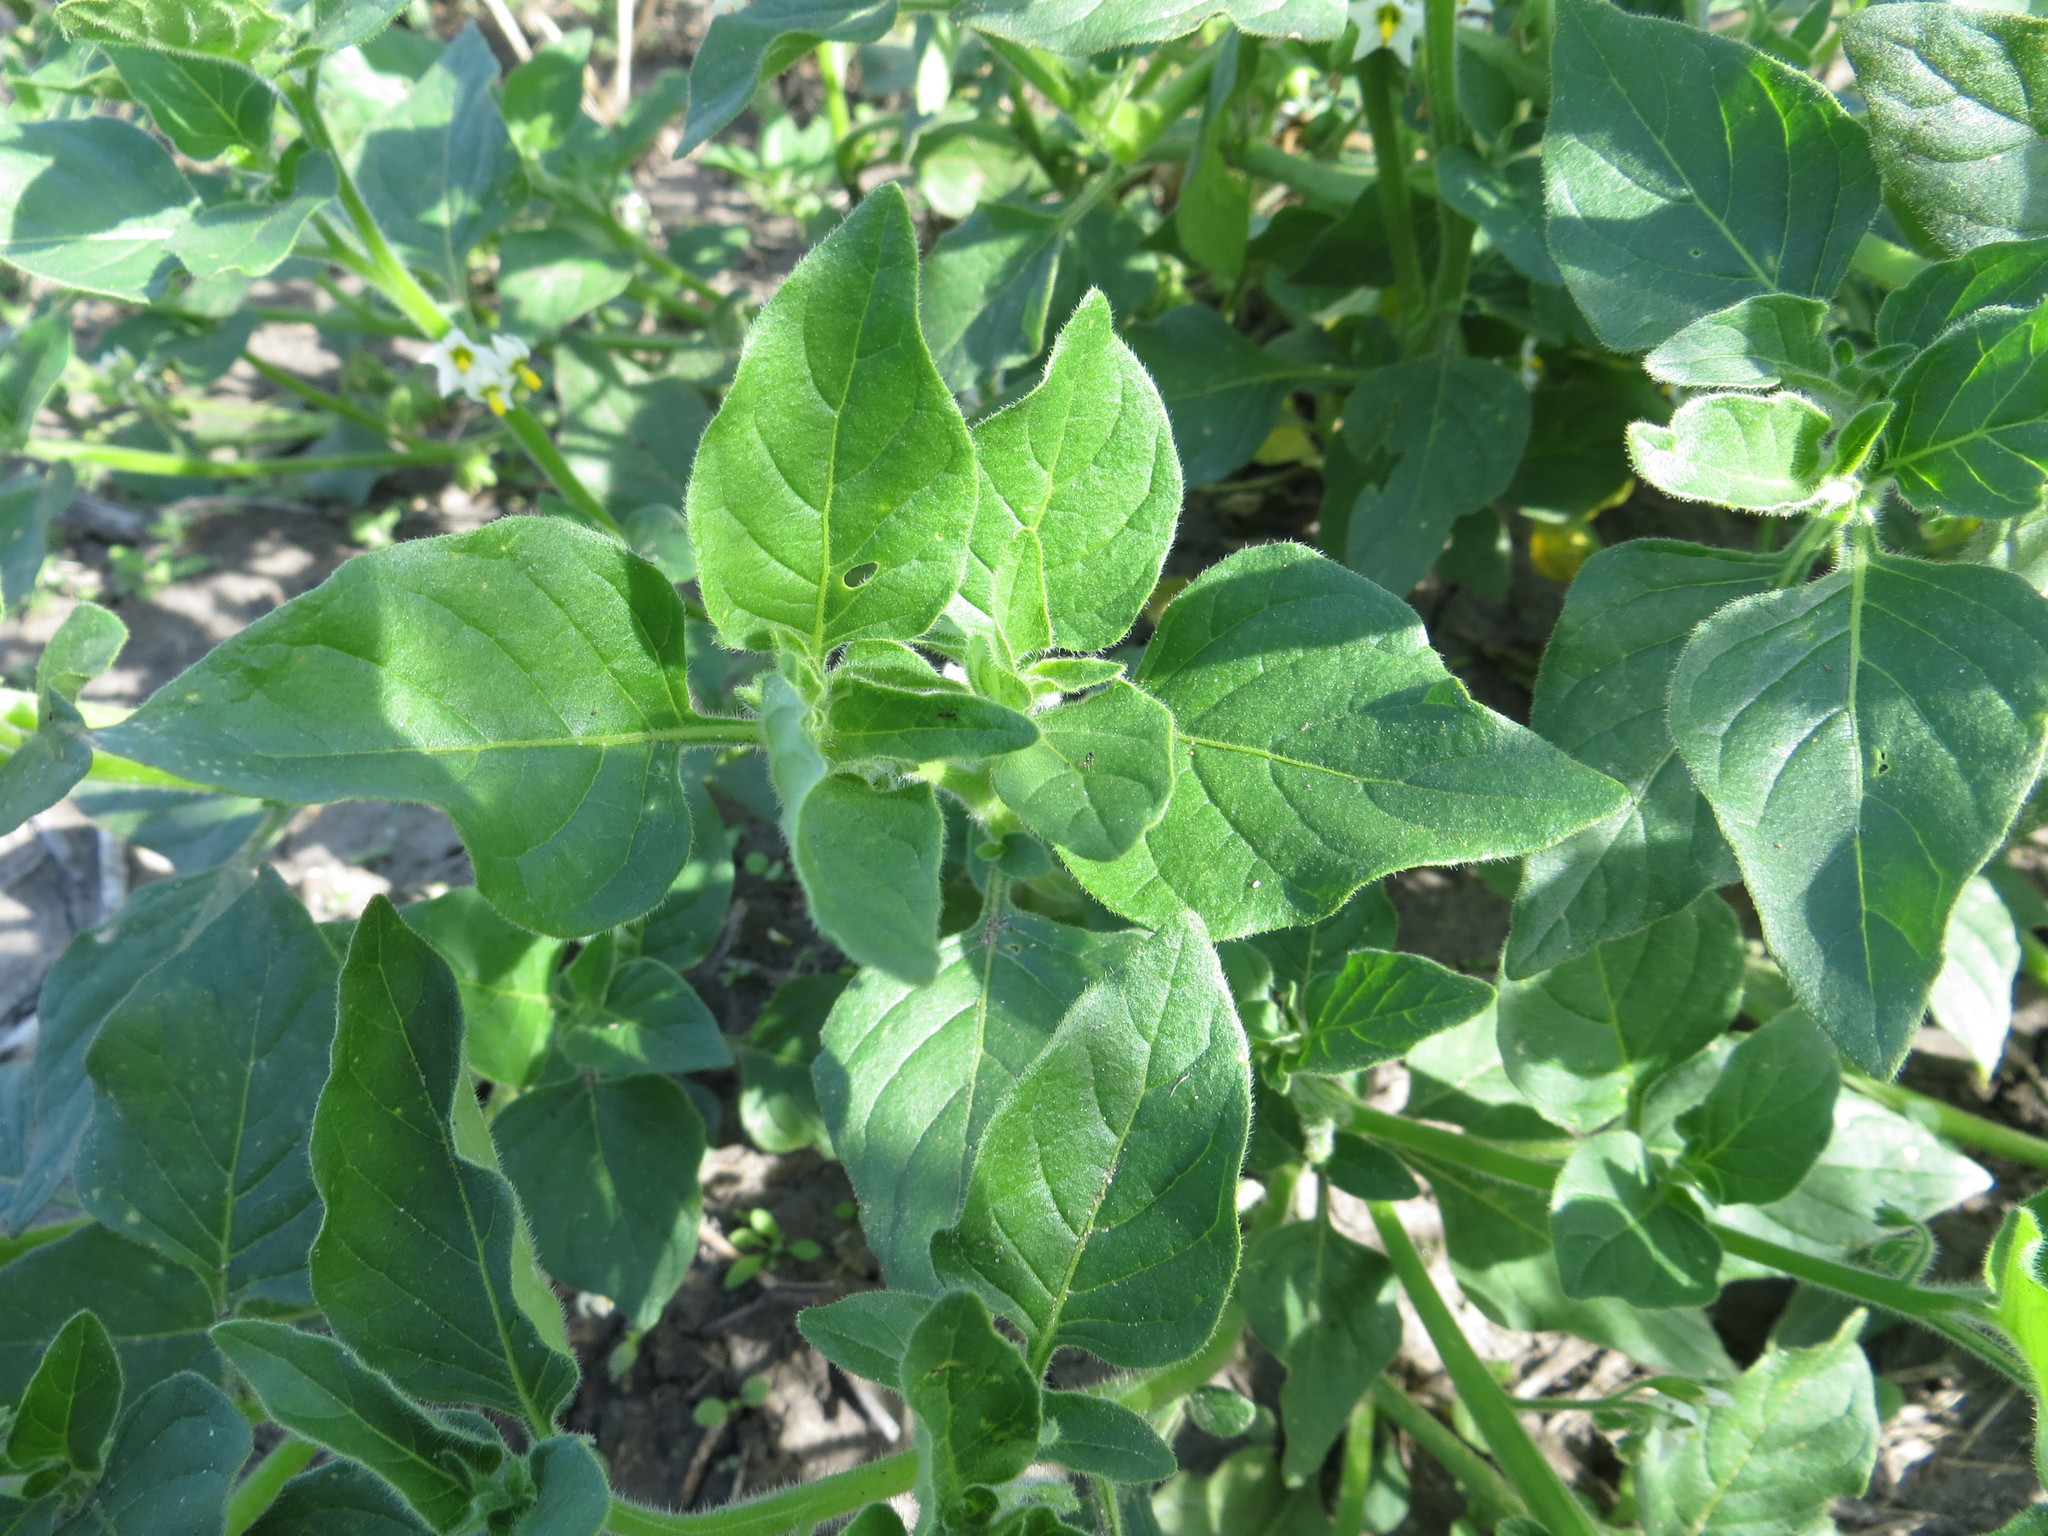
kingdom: Plantae
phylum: Tracheophyta
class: Magnoliopsida
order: Solanales
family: Solanaceae
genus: Solanum
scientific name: Solanum nitidibaccatum
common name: Hairy nightshade
